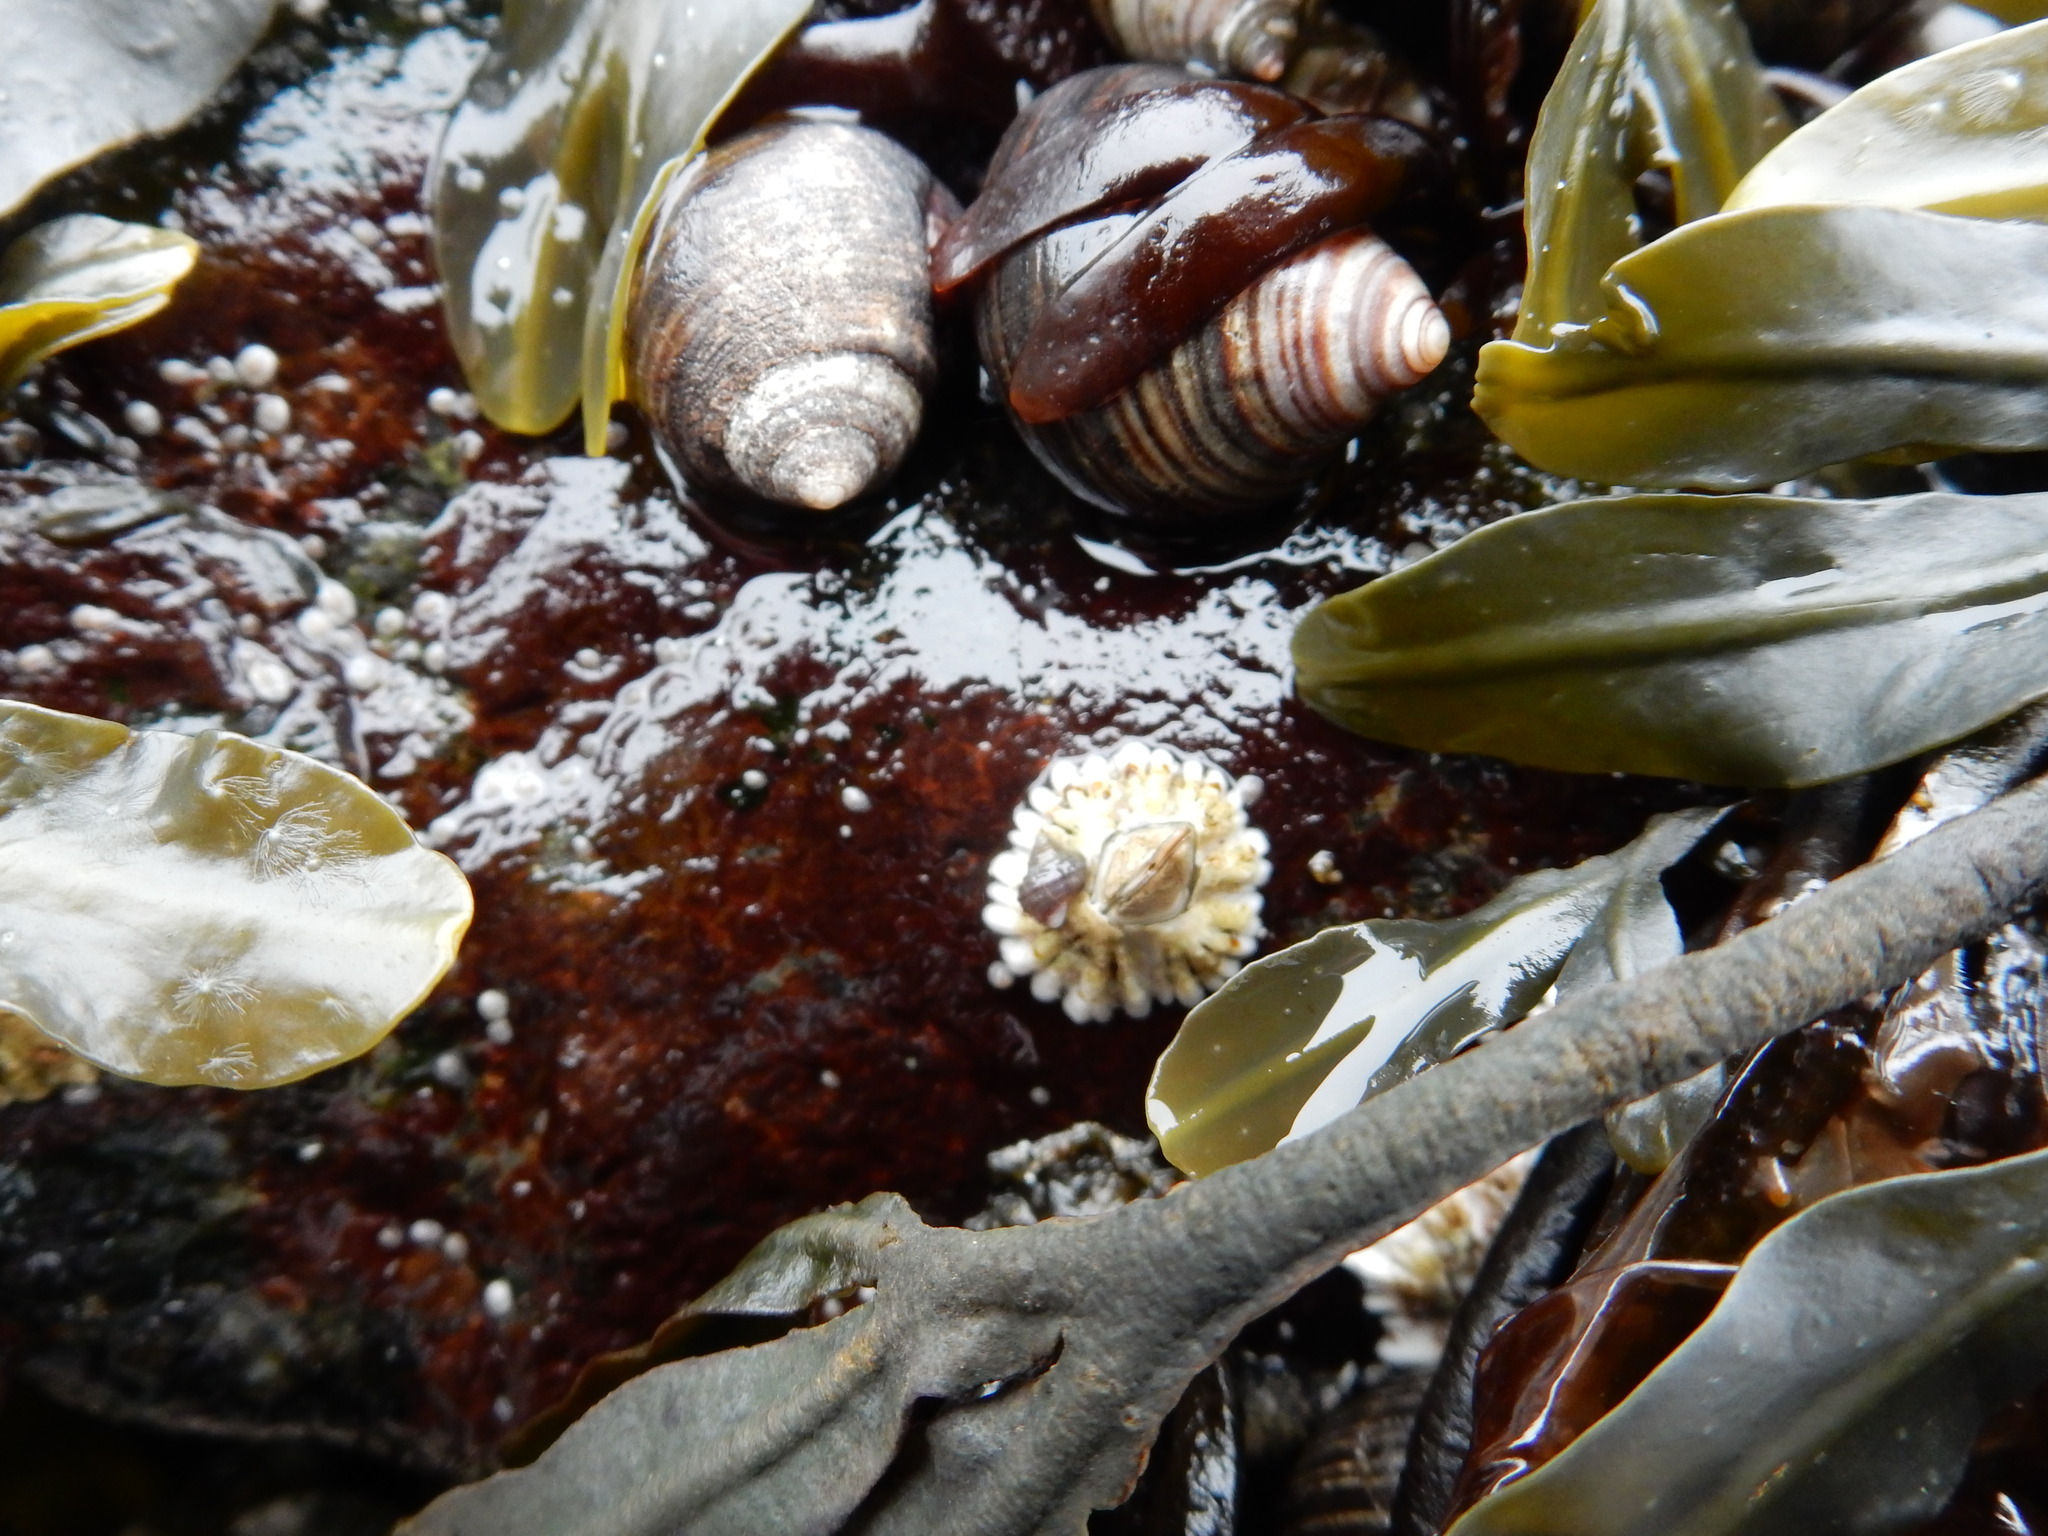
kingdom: Animalia
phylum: Arthropoda
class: Maxillopoda
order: Sessilia
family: Archaeobalanidae
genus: Semibalanus
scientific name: Semibalanus balanoides
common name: Acorn barnacle
